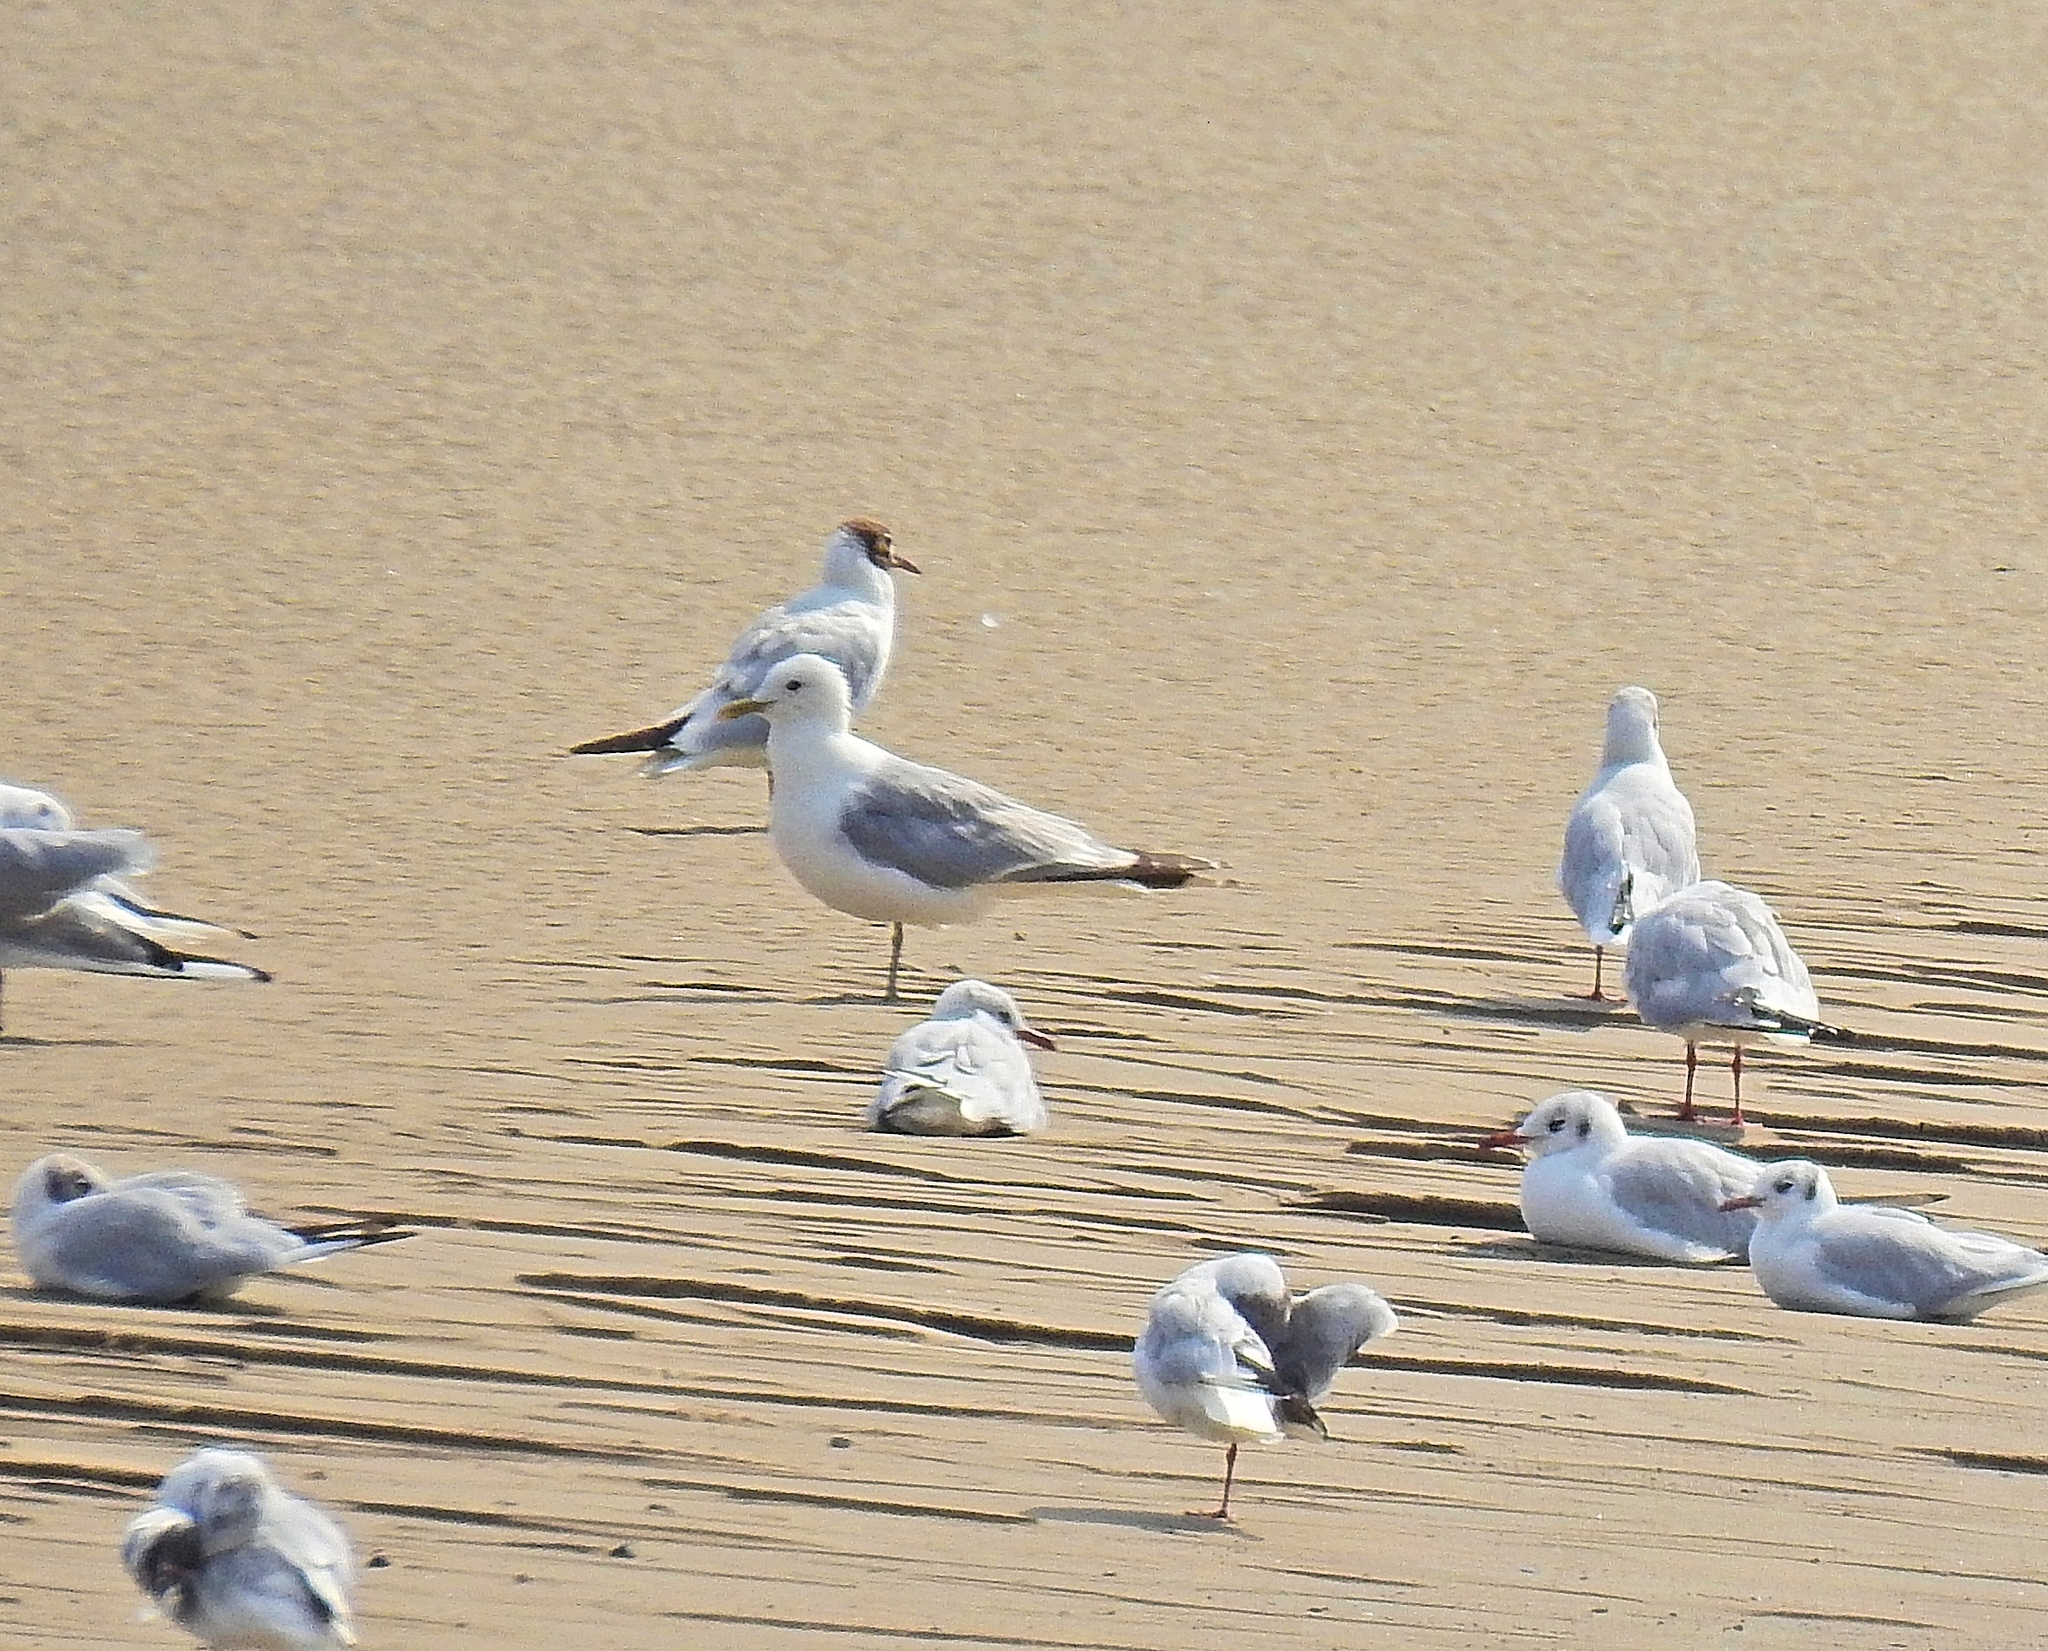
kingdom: Animalia
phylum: Chordata
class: Aves
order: Charadriiformes
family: Laridae
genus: Larus
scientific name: Larus canus
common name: Mew gull
